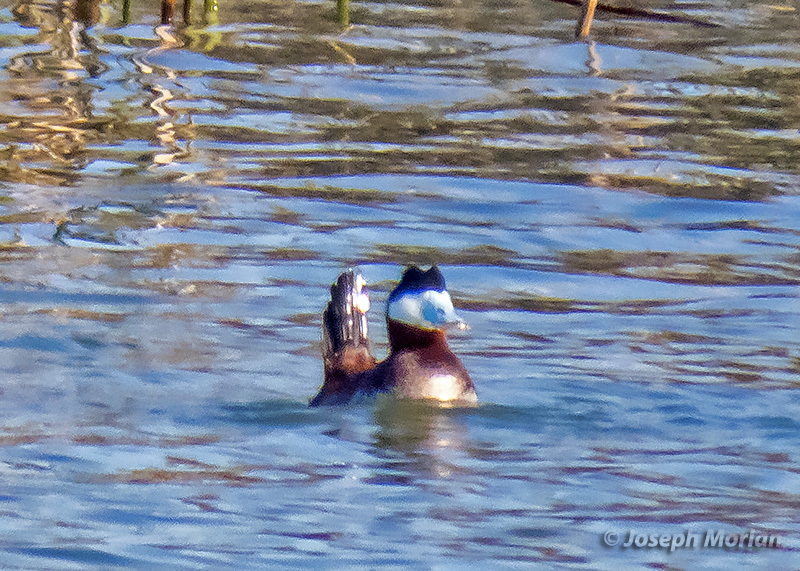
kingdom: Animalia
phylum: Chordata
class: Aves
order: Anseriformes
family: Anatidae
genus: Oxyura
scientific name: Oxyura jamaicensis
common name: Ruddy duck
